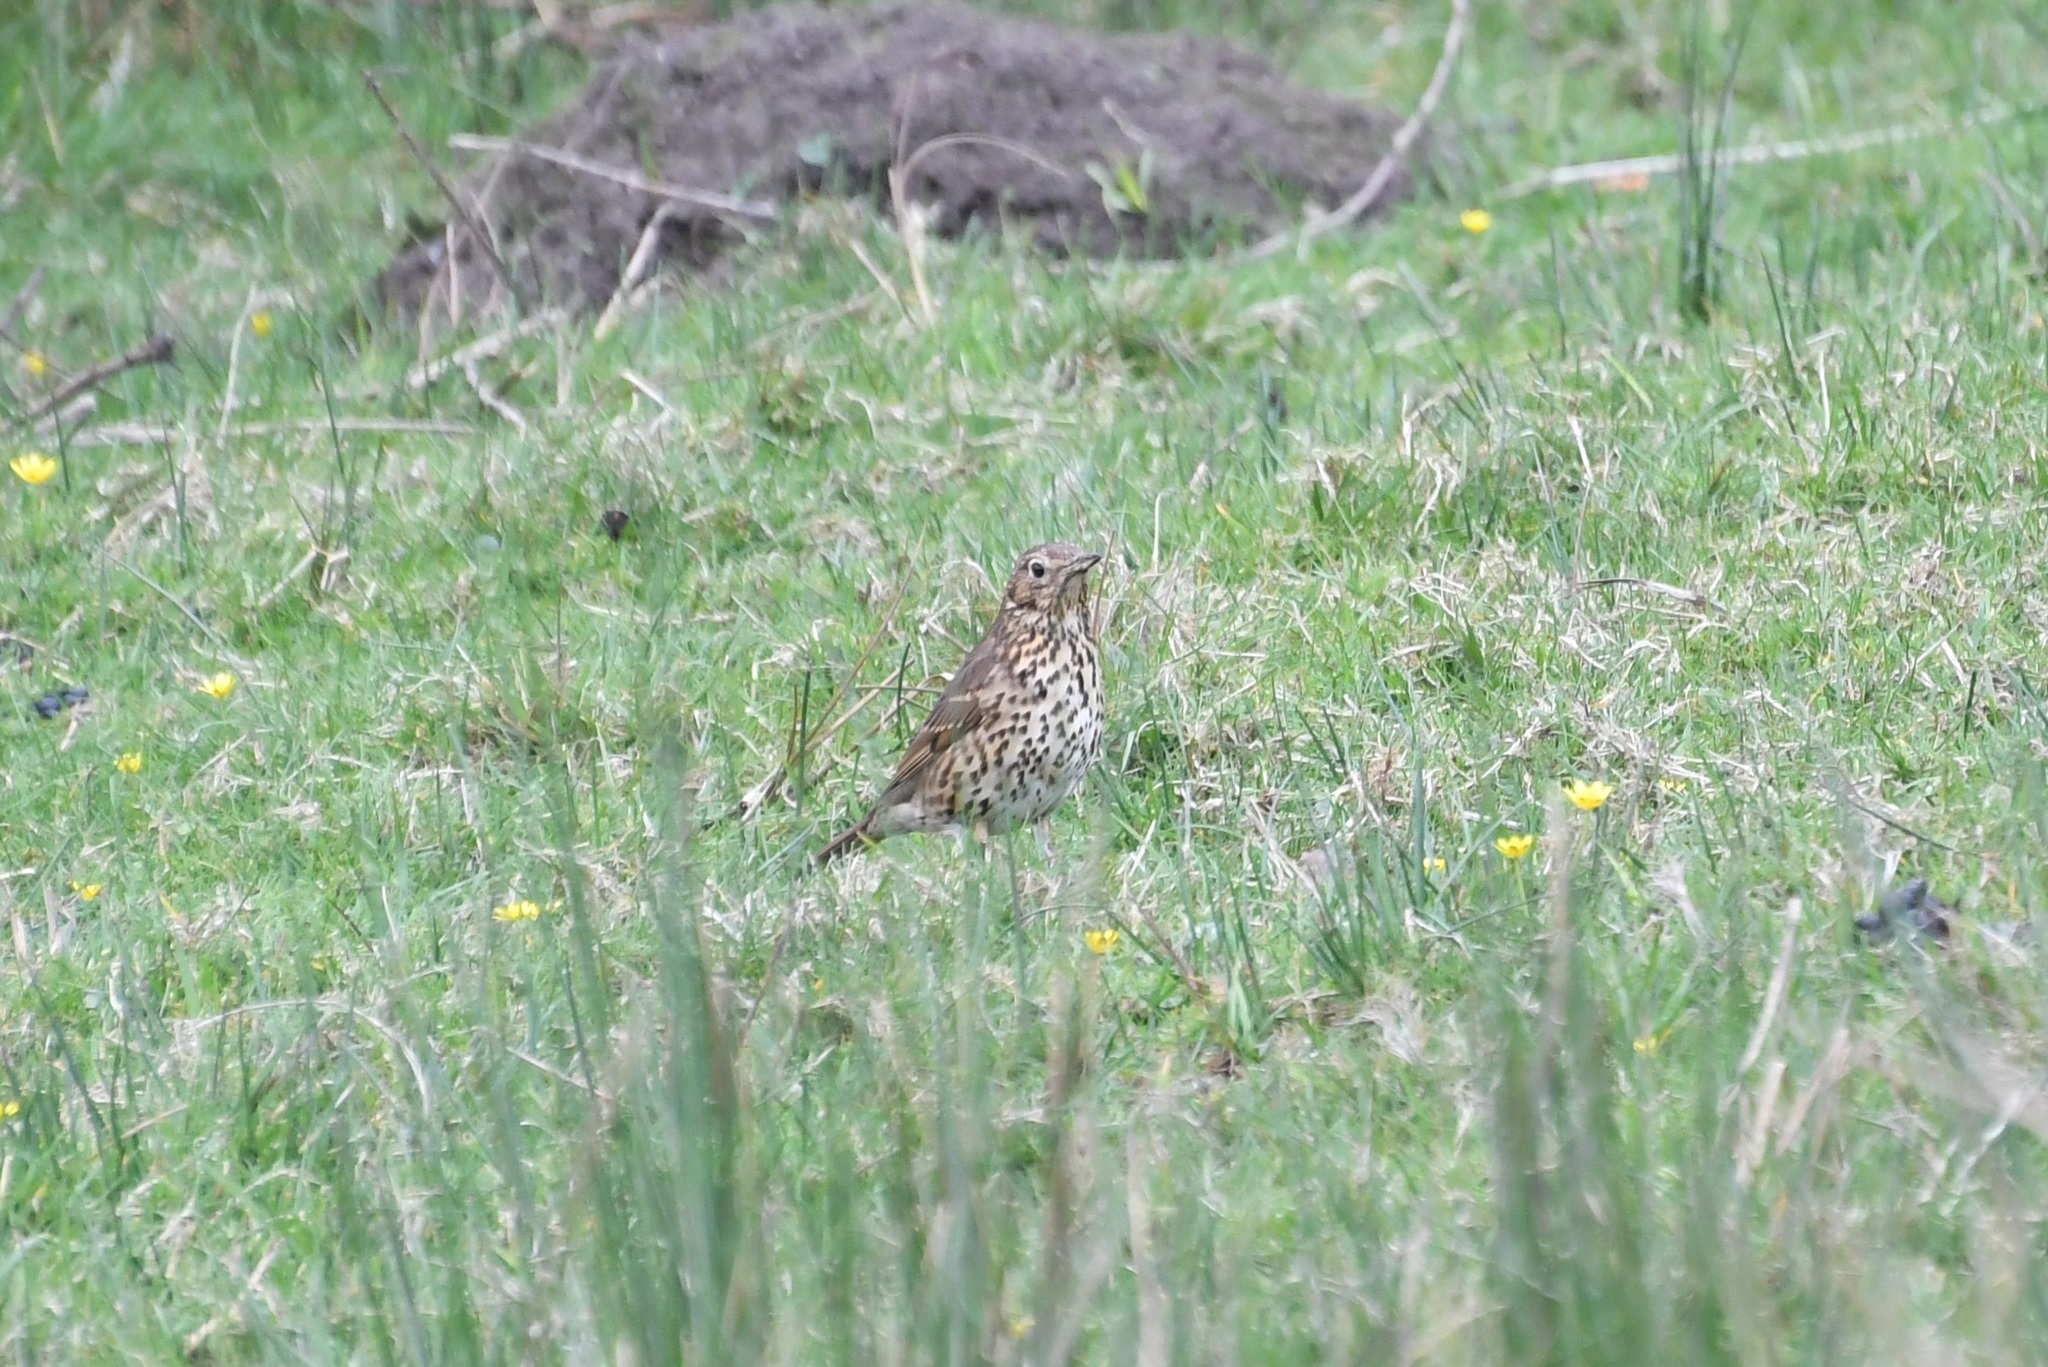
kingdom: Animalia
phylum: Chordata
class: Aves
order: Passeriformes
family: Turdidae
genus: Turdus
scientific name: Turdus philomelos
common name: Song thrush
